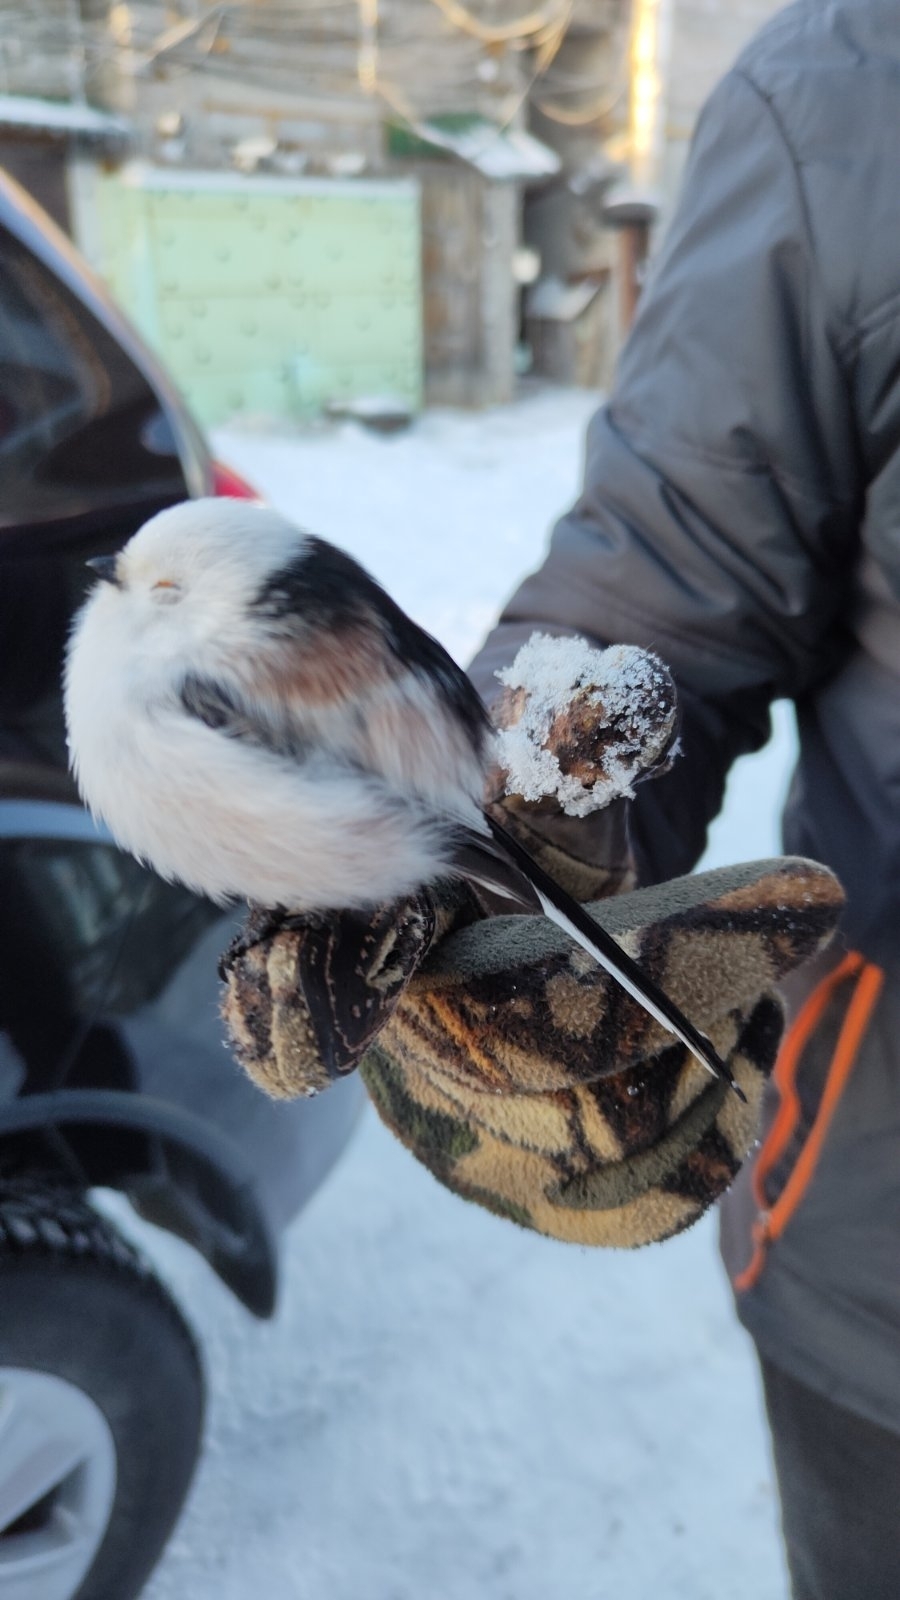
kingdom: Animalia
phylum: Chordata
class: Aves
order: Passeriformes
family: Aegithalidae
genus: Aegithalos
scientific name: Aegithalos caudatus
